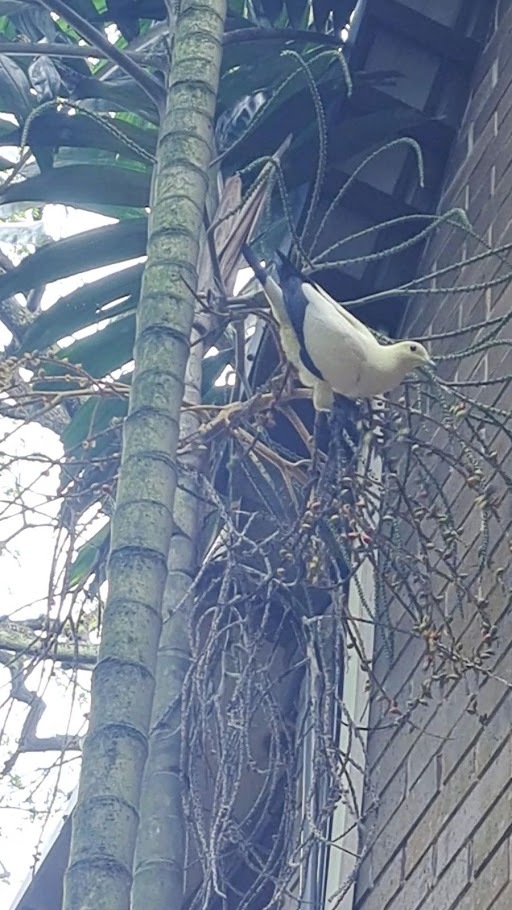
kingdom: Animalia
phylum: Chordata
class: Aves
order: Columbiformes
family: Columbidae
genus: Ducula
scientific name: Ducula bicolor
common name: Pied imperial pigeon
